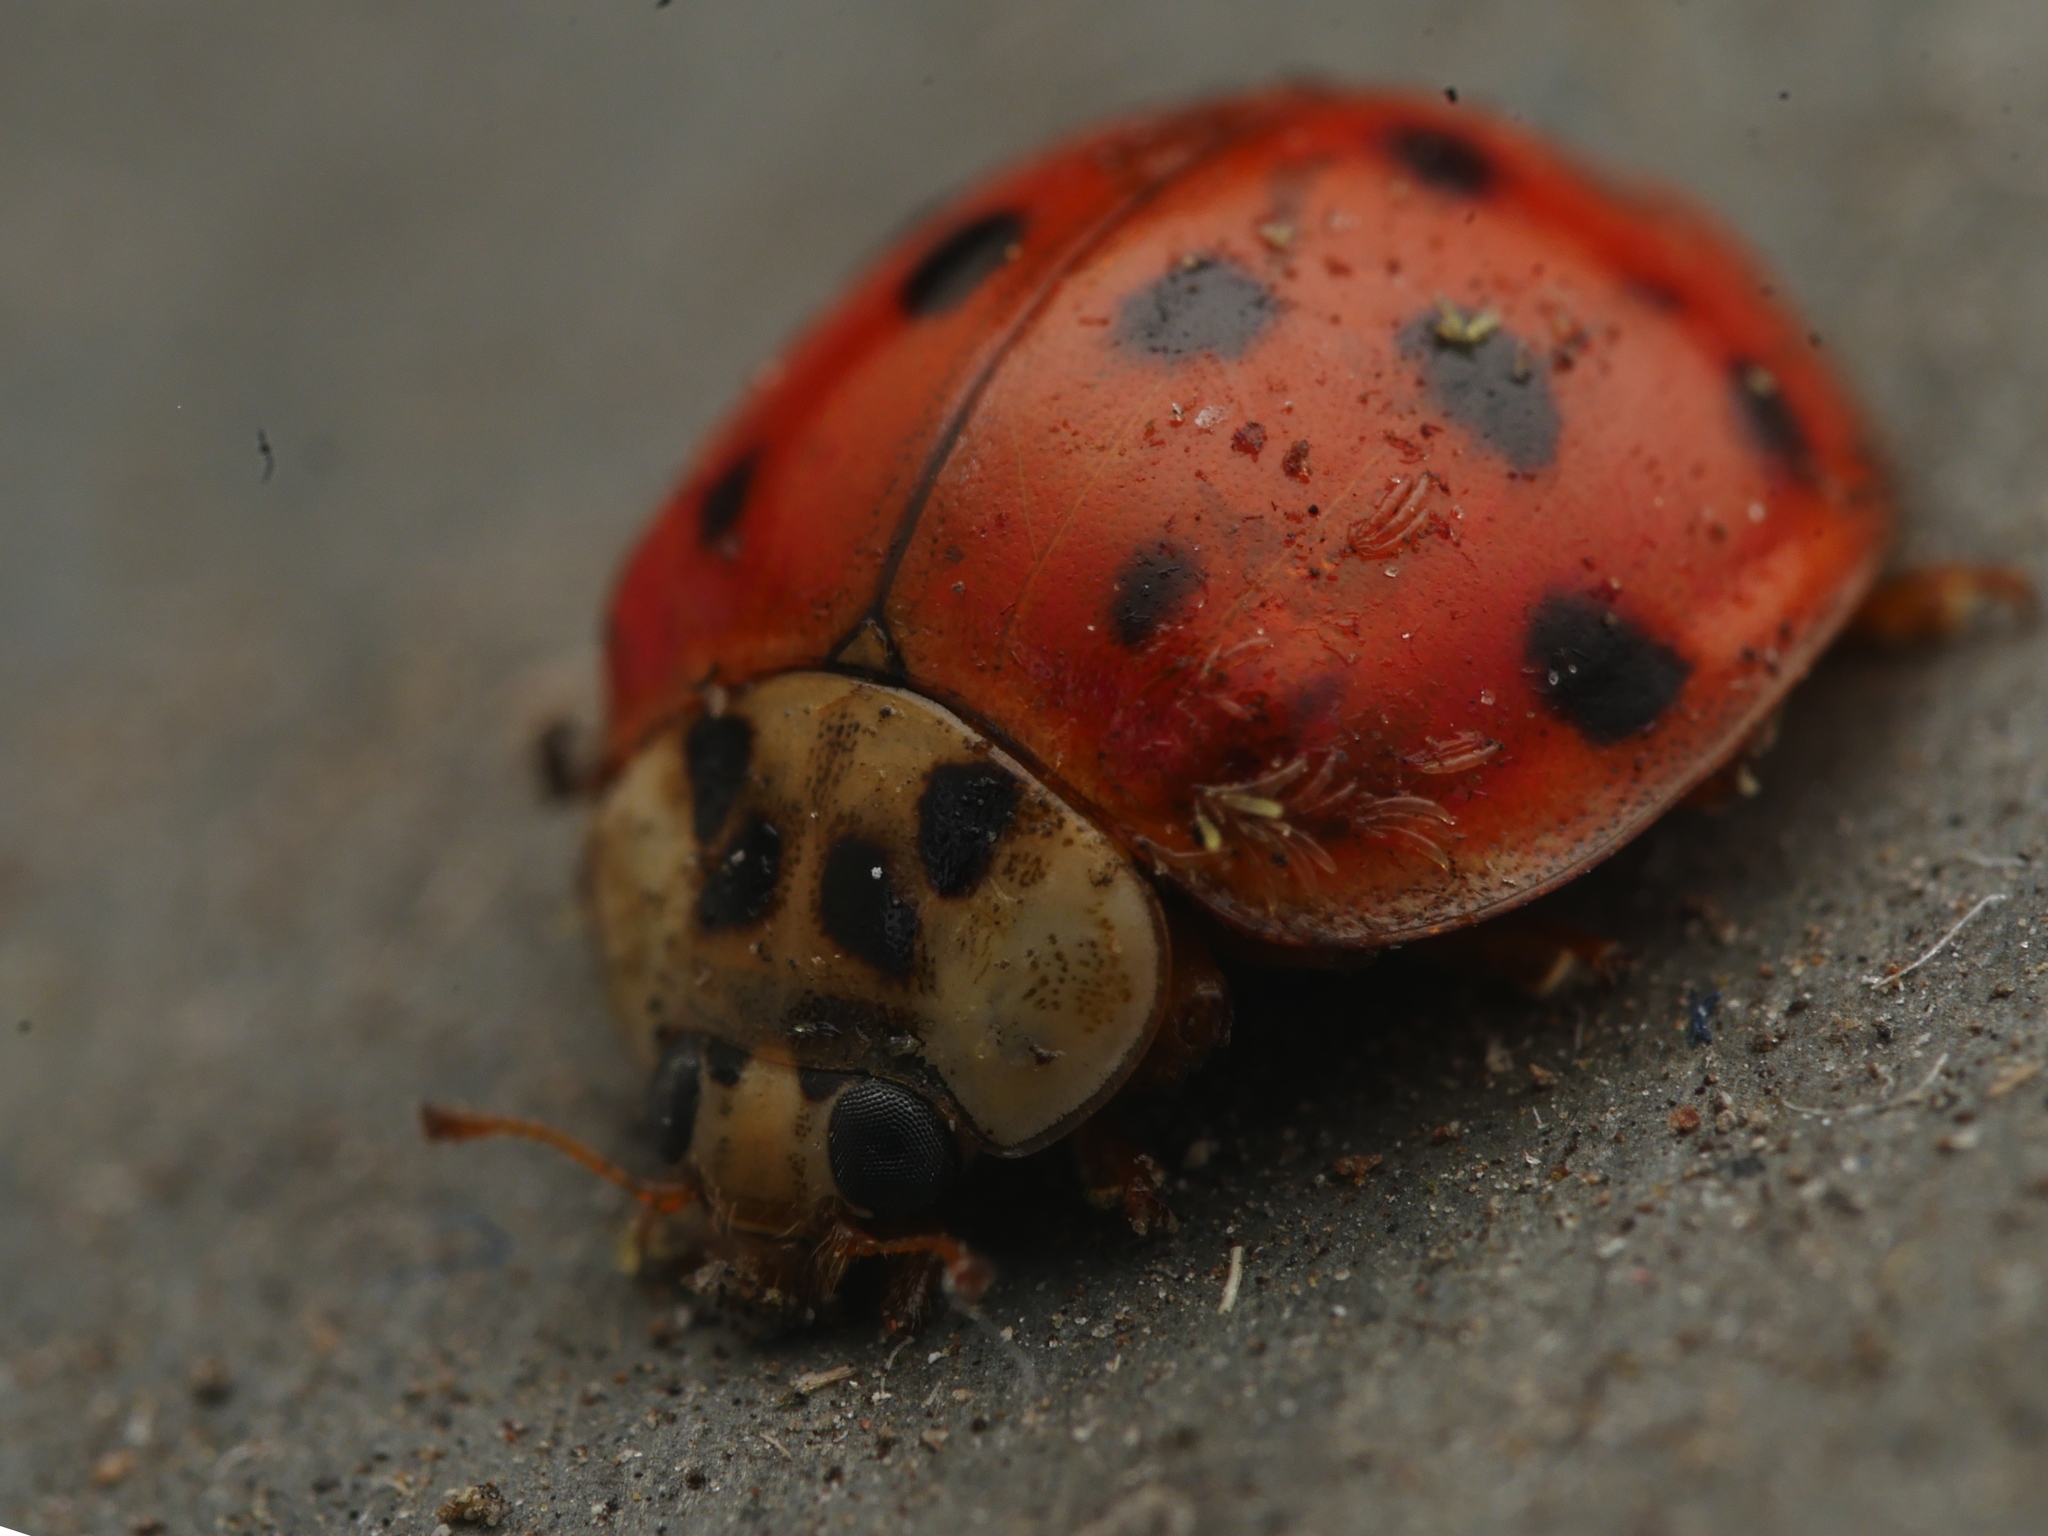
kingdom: Animalia
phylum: Arthropoda
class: Insecta
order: Coleoptera
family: Coccinellidae
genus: Harmonia
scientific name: Harmonia axyridis
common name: Harlequin ladybird
